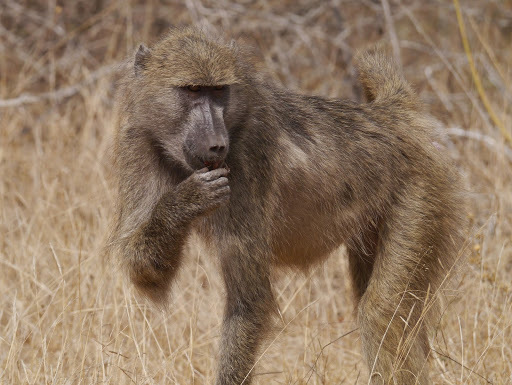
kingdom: Animalia
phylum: Chordata
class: Mammalia
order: Primates
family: Cercopithecidae
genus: Papio
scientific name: Papio ursinus
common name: Chacma baboon
